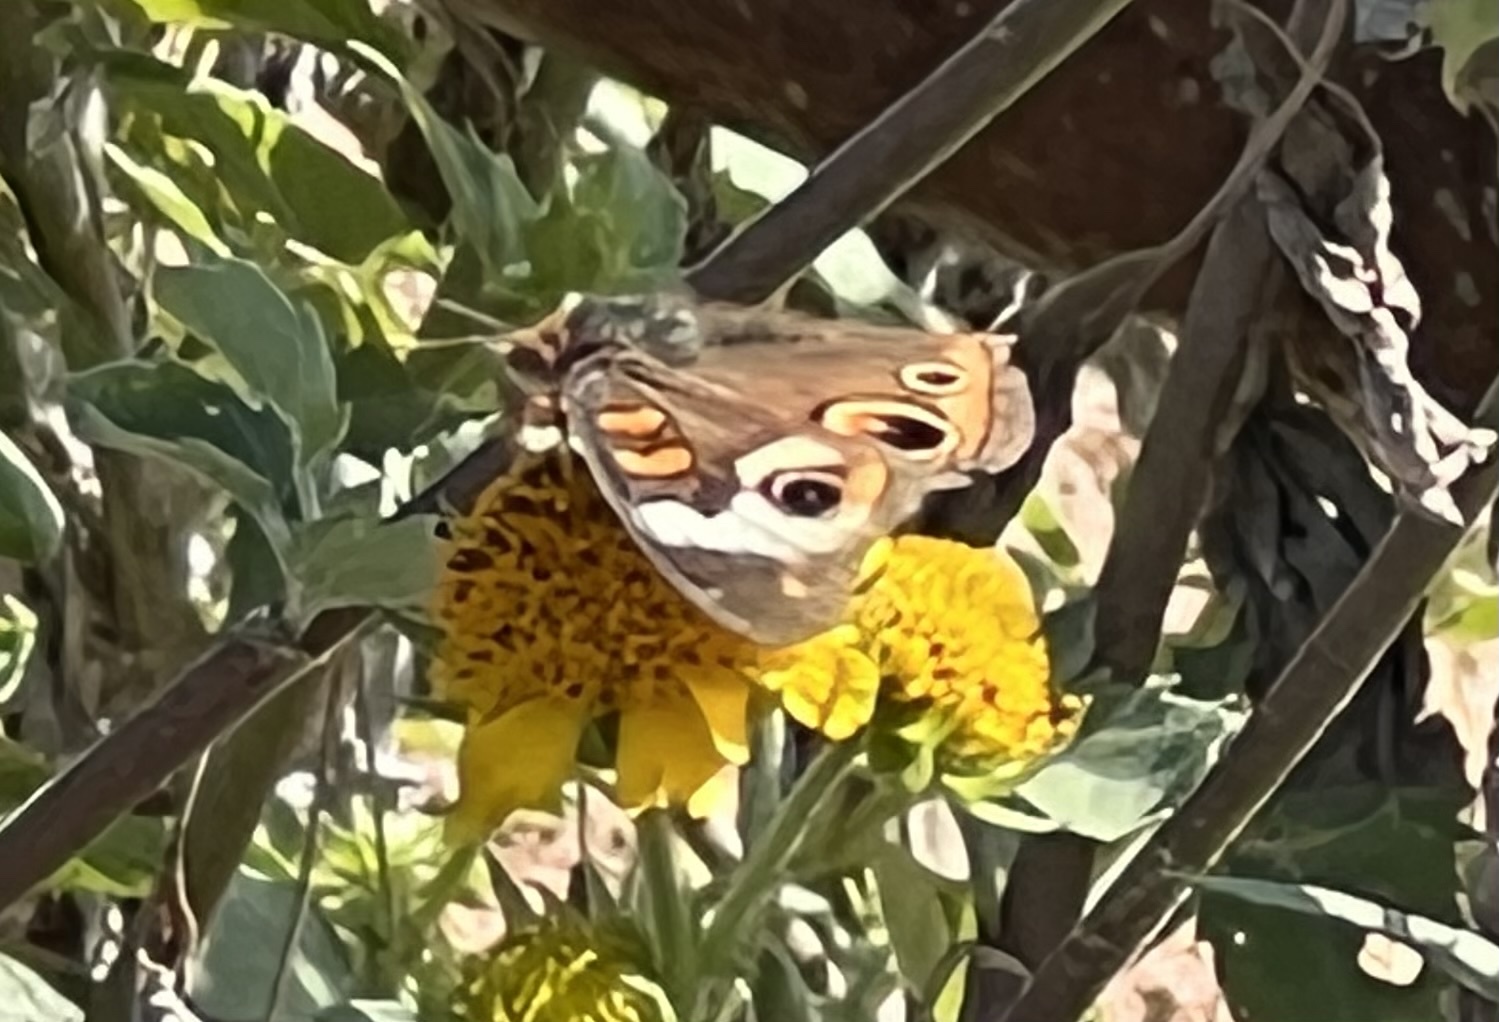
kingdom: Animalia
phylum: Arthropoda
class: Insecta
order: Lepidoptera
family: Nymphalidae
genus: Junonia
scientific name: Junonia coenia
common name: Common buckeye
